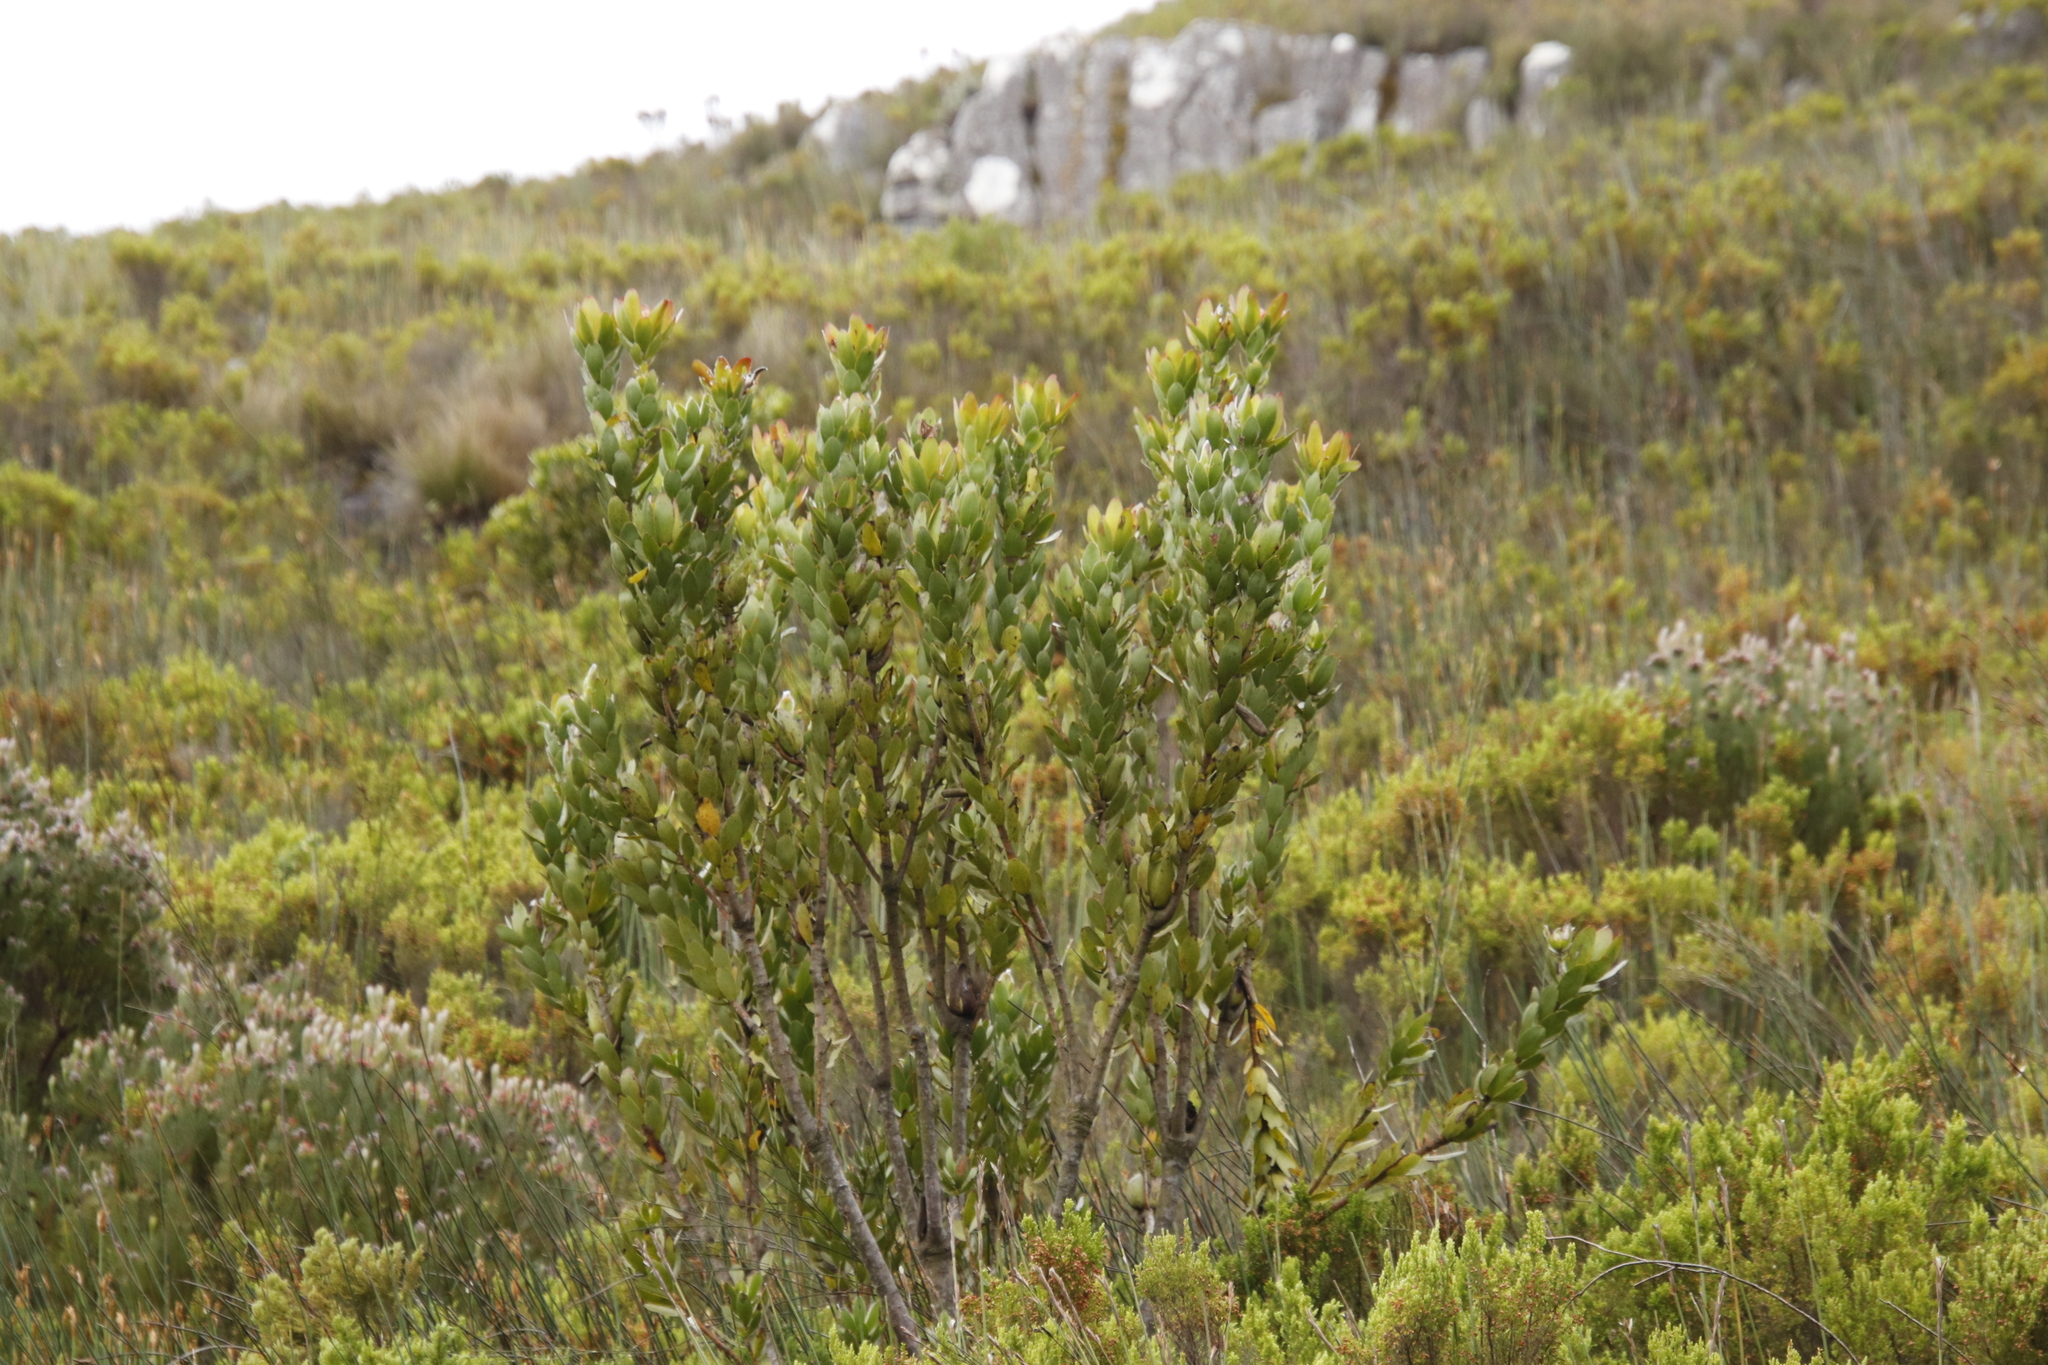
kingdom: Plantae
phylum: Tracheophyta
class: Magnoliopsida
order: Proteales
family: Proteaceae
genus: Leucadendron
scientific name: Leucadendron gandogeri
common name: Broad-leaf conebush
